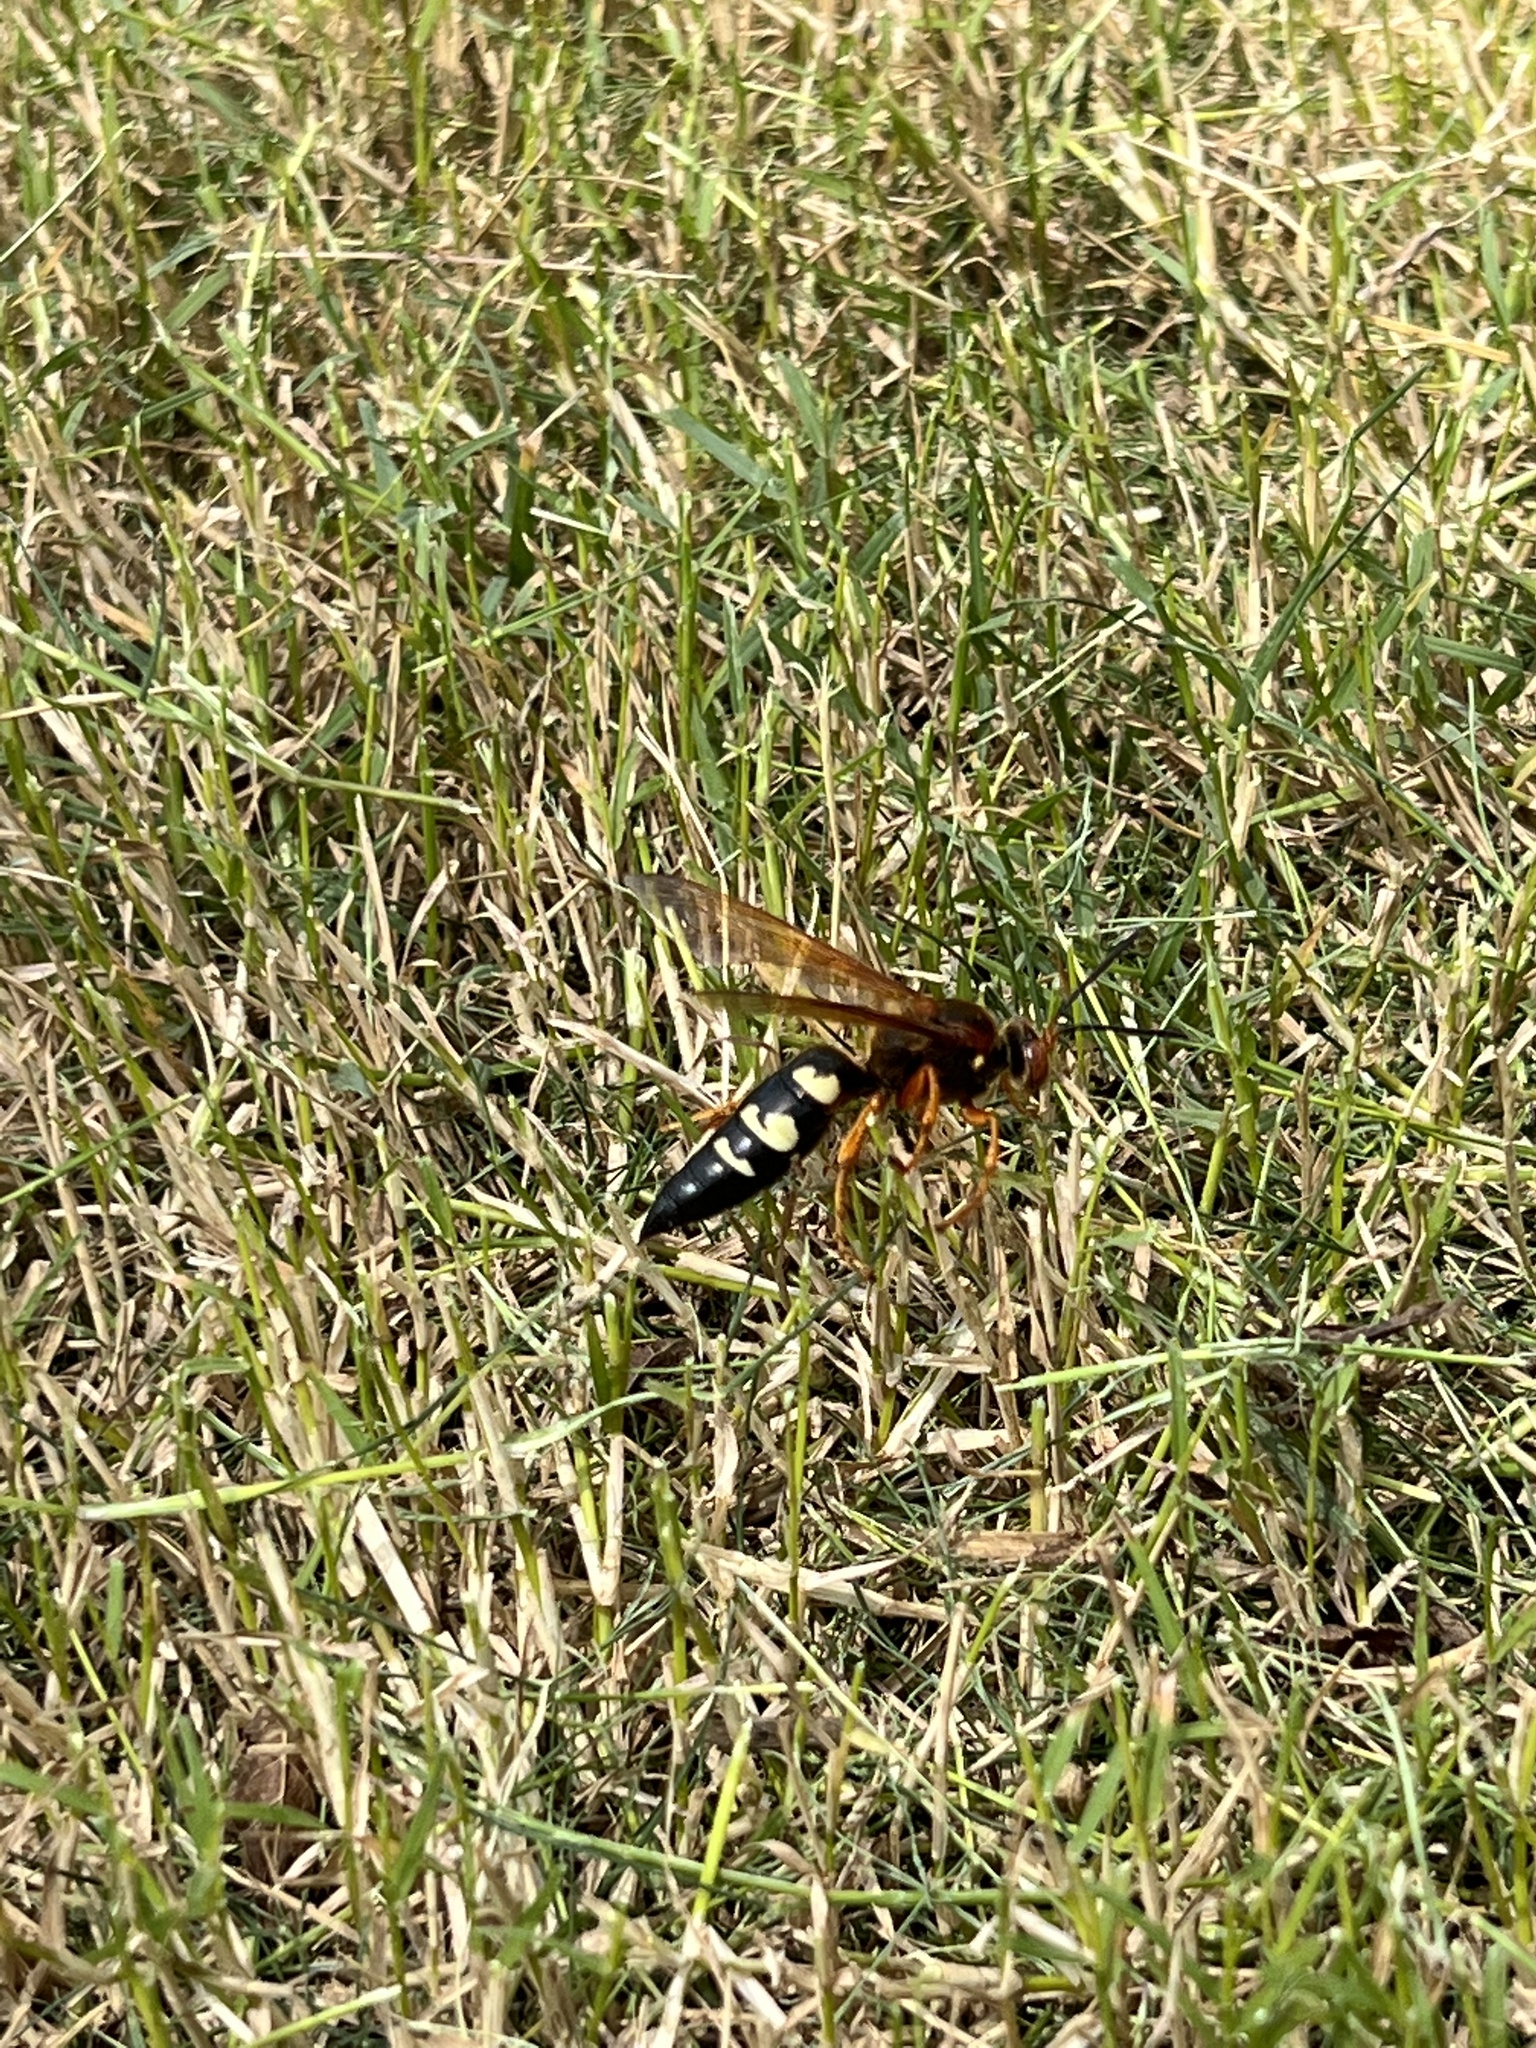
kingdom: Animalia
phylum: Arthropoda
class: Insecta
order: Hymenoptera
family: Crabronidae
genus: Sphecius
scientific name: Sphecius speciosus
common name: Cicada killer
